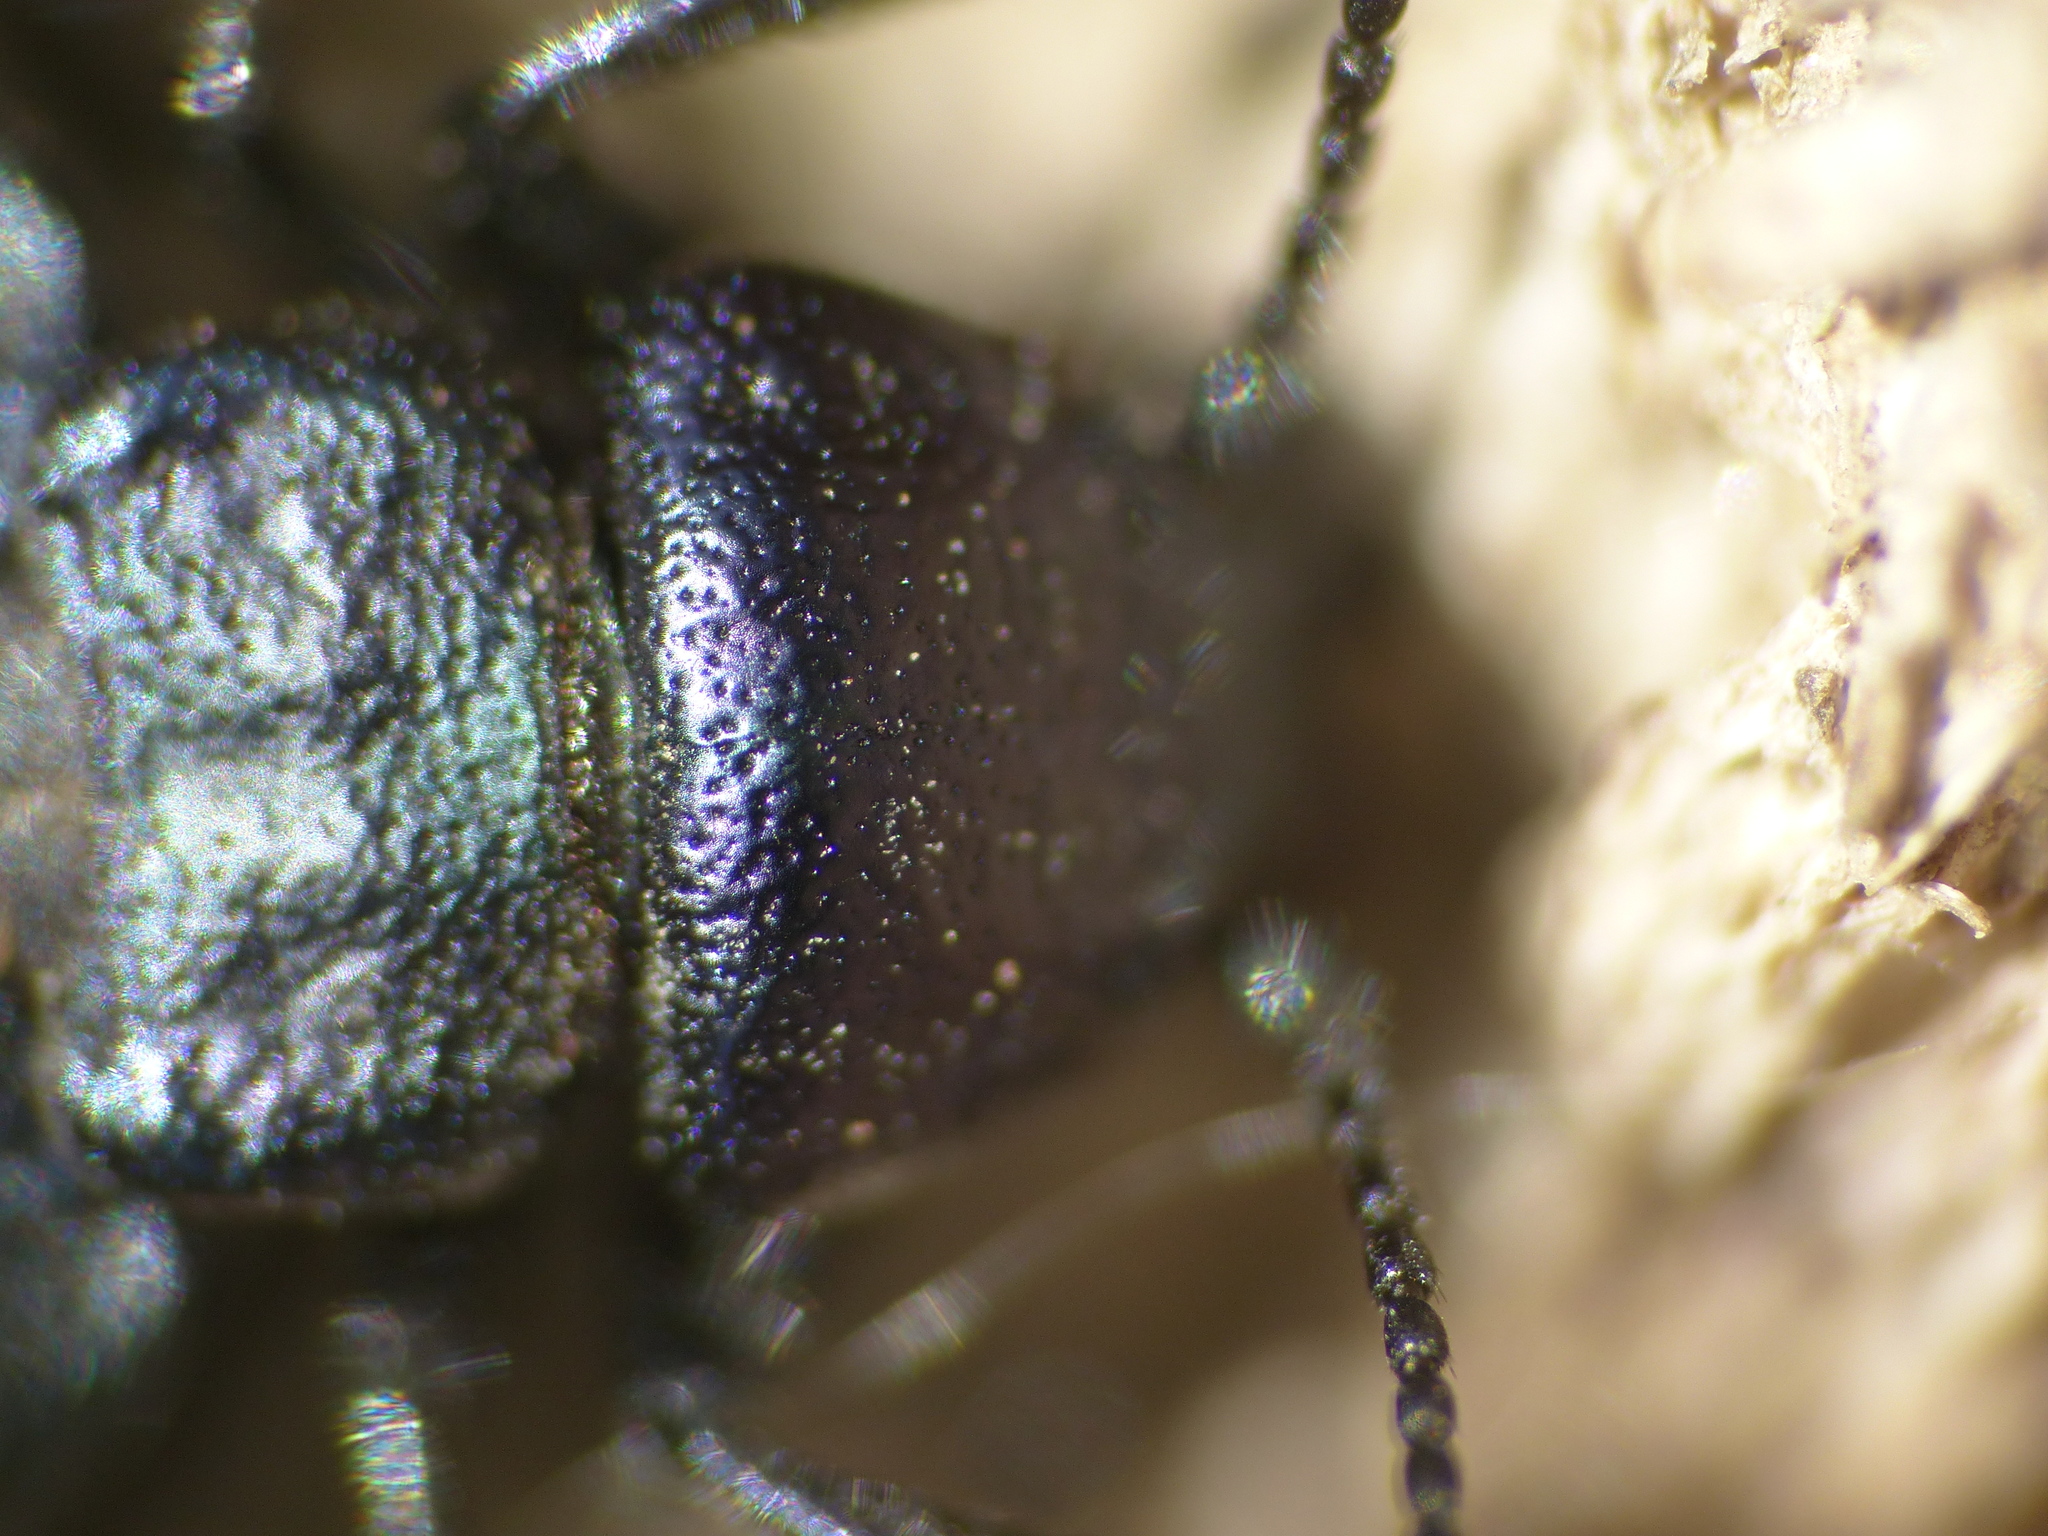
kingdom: Animalia
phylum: Arthropoda
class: Insecta
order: Coleoptera
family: Meloidae
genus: Meloe
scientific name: Meloe decorus
